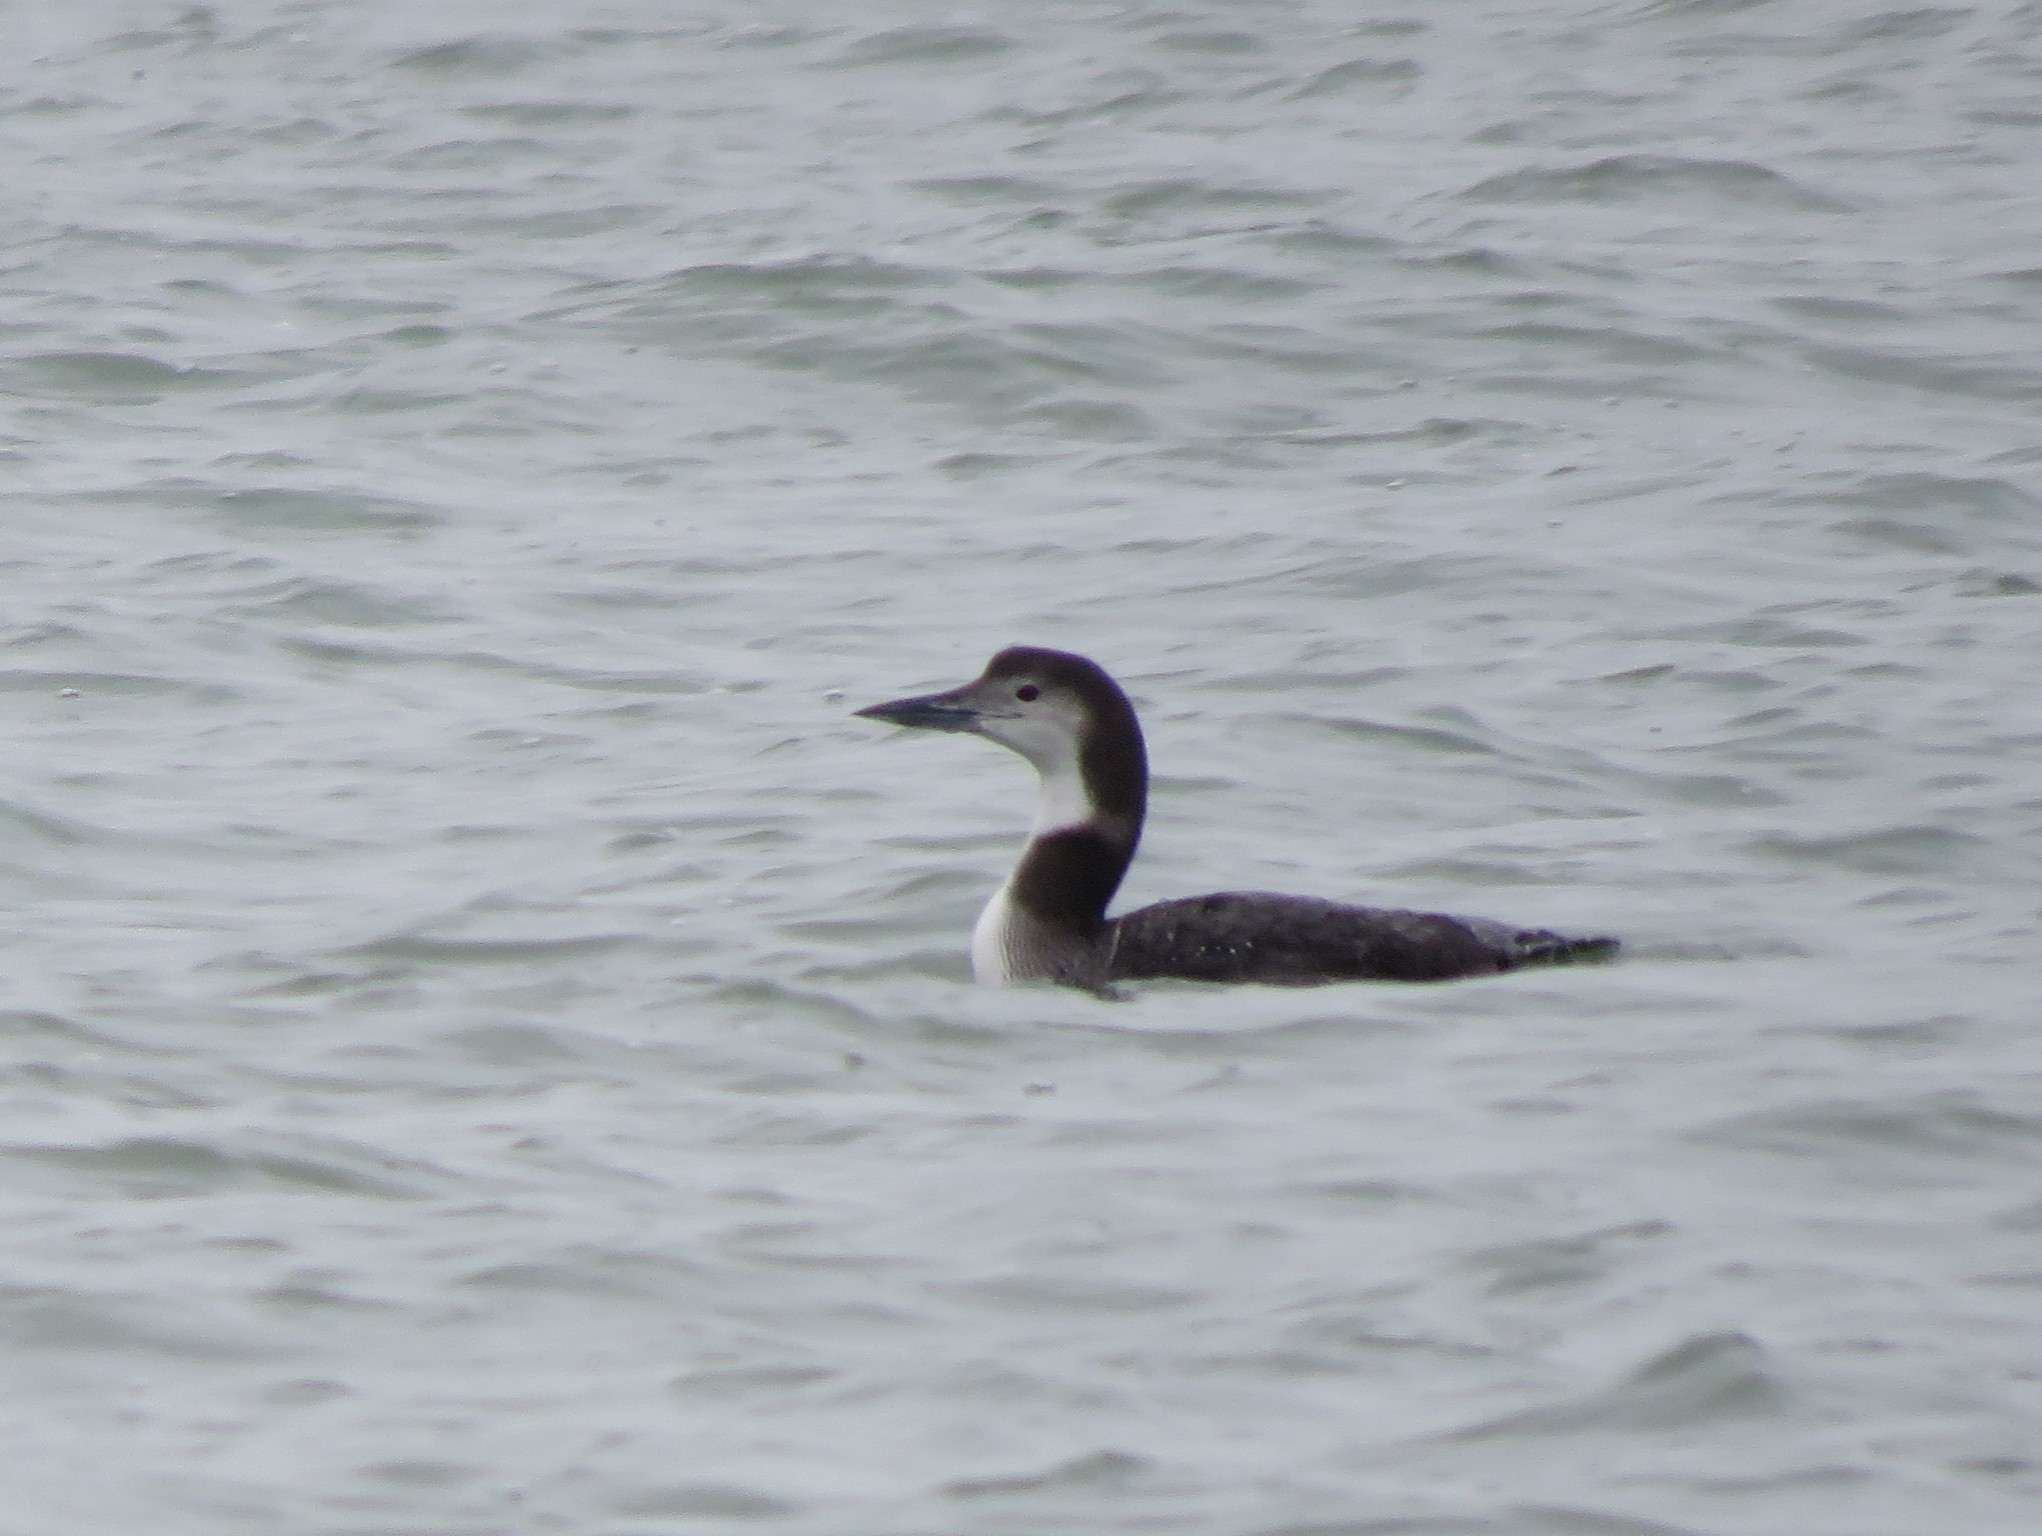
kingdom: Animalia
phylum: Chordata
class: Aves
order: Gaviiformes
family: Gaviidae
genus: Gavia
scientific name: Gavia immer
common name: Common loon
